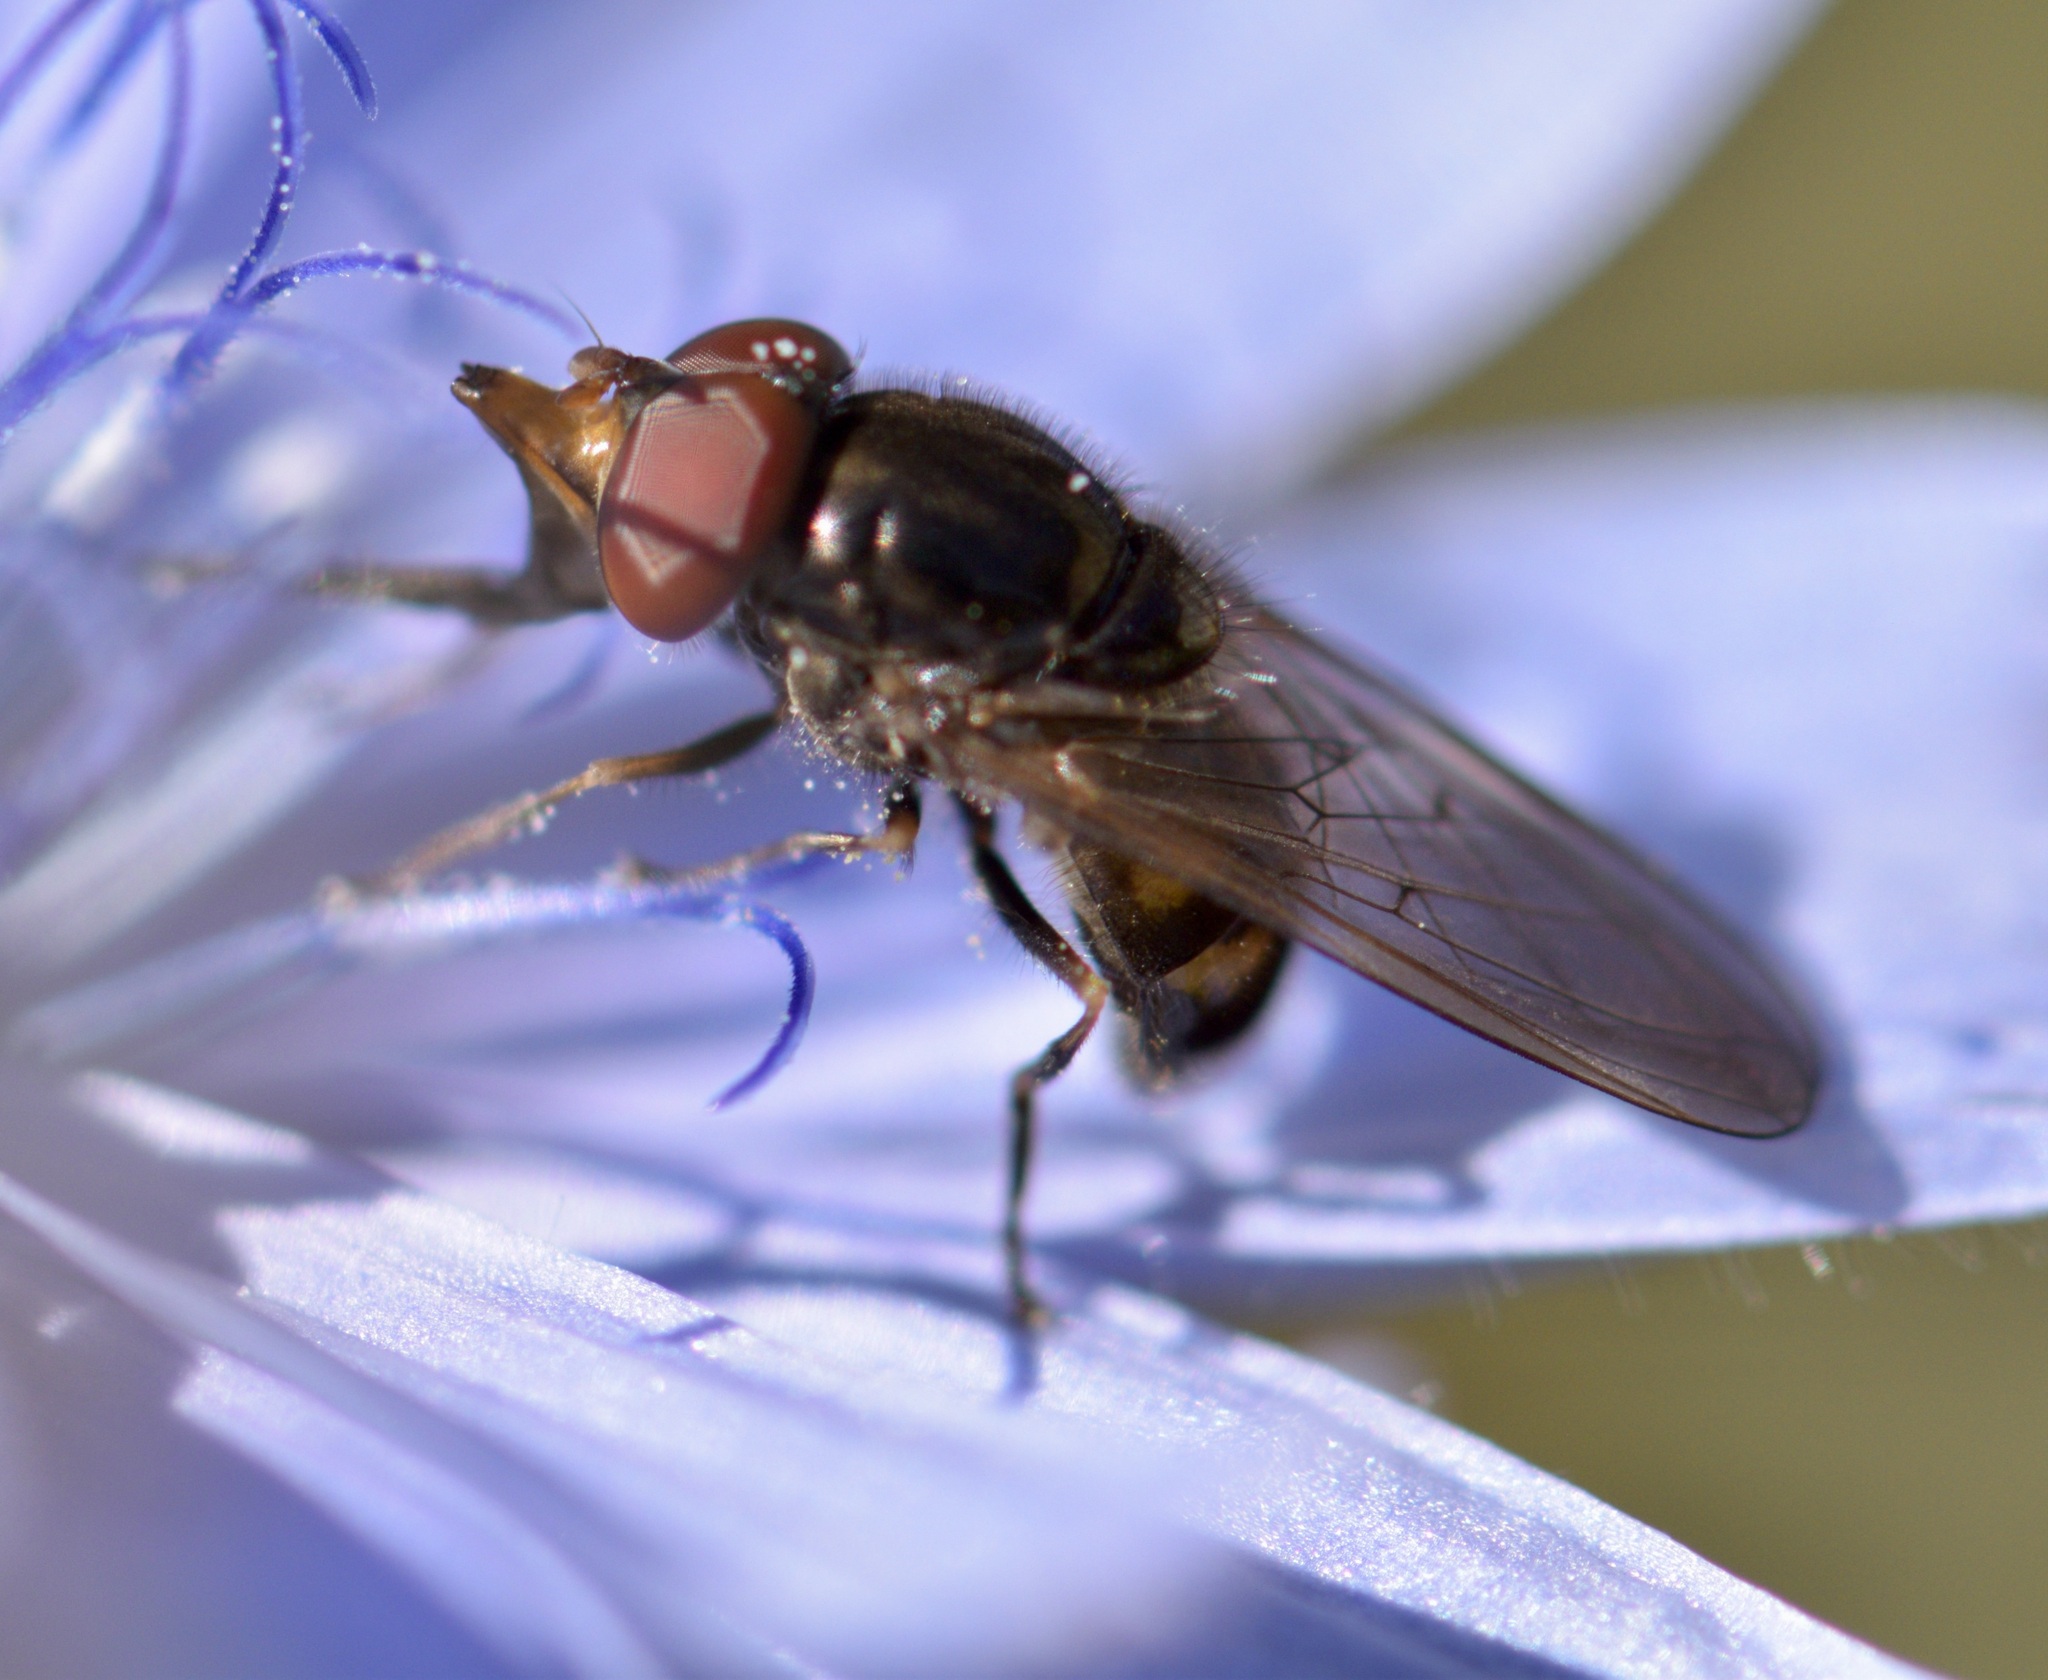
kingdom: Animalia
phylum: Arthropoda
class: Insecta
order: Diptera
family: Syrphidae
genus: Rhingia
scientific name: Rhingia nasica
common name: American snout fly
